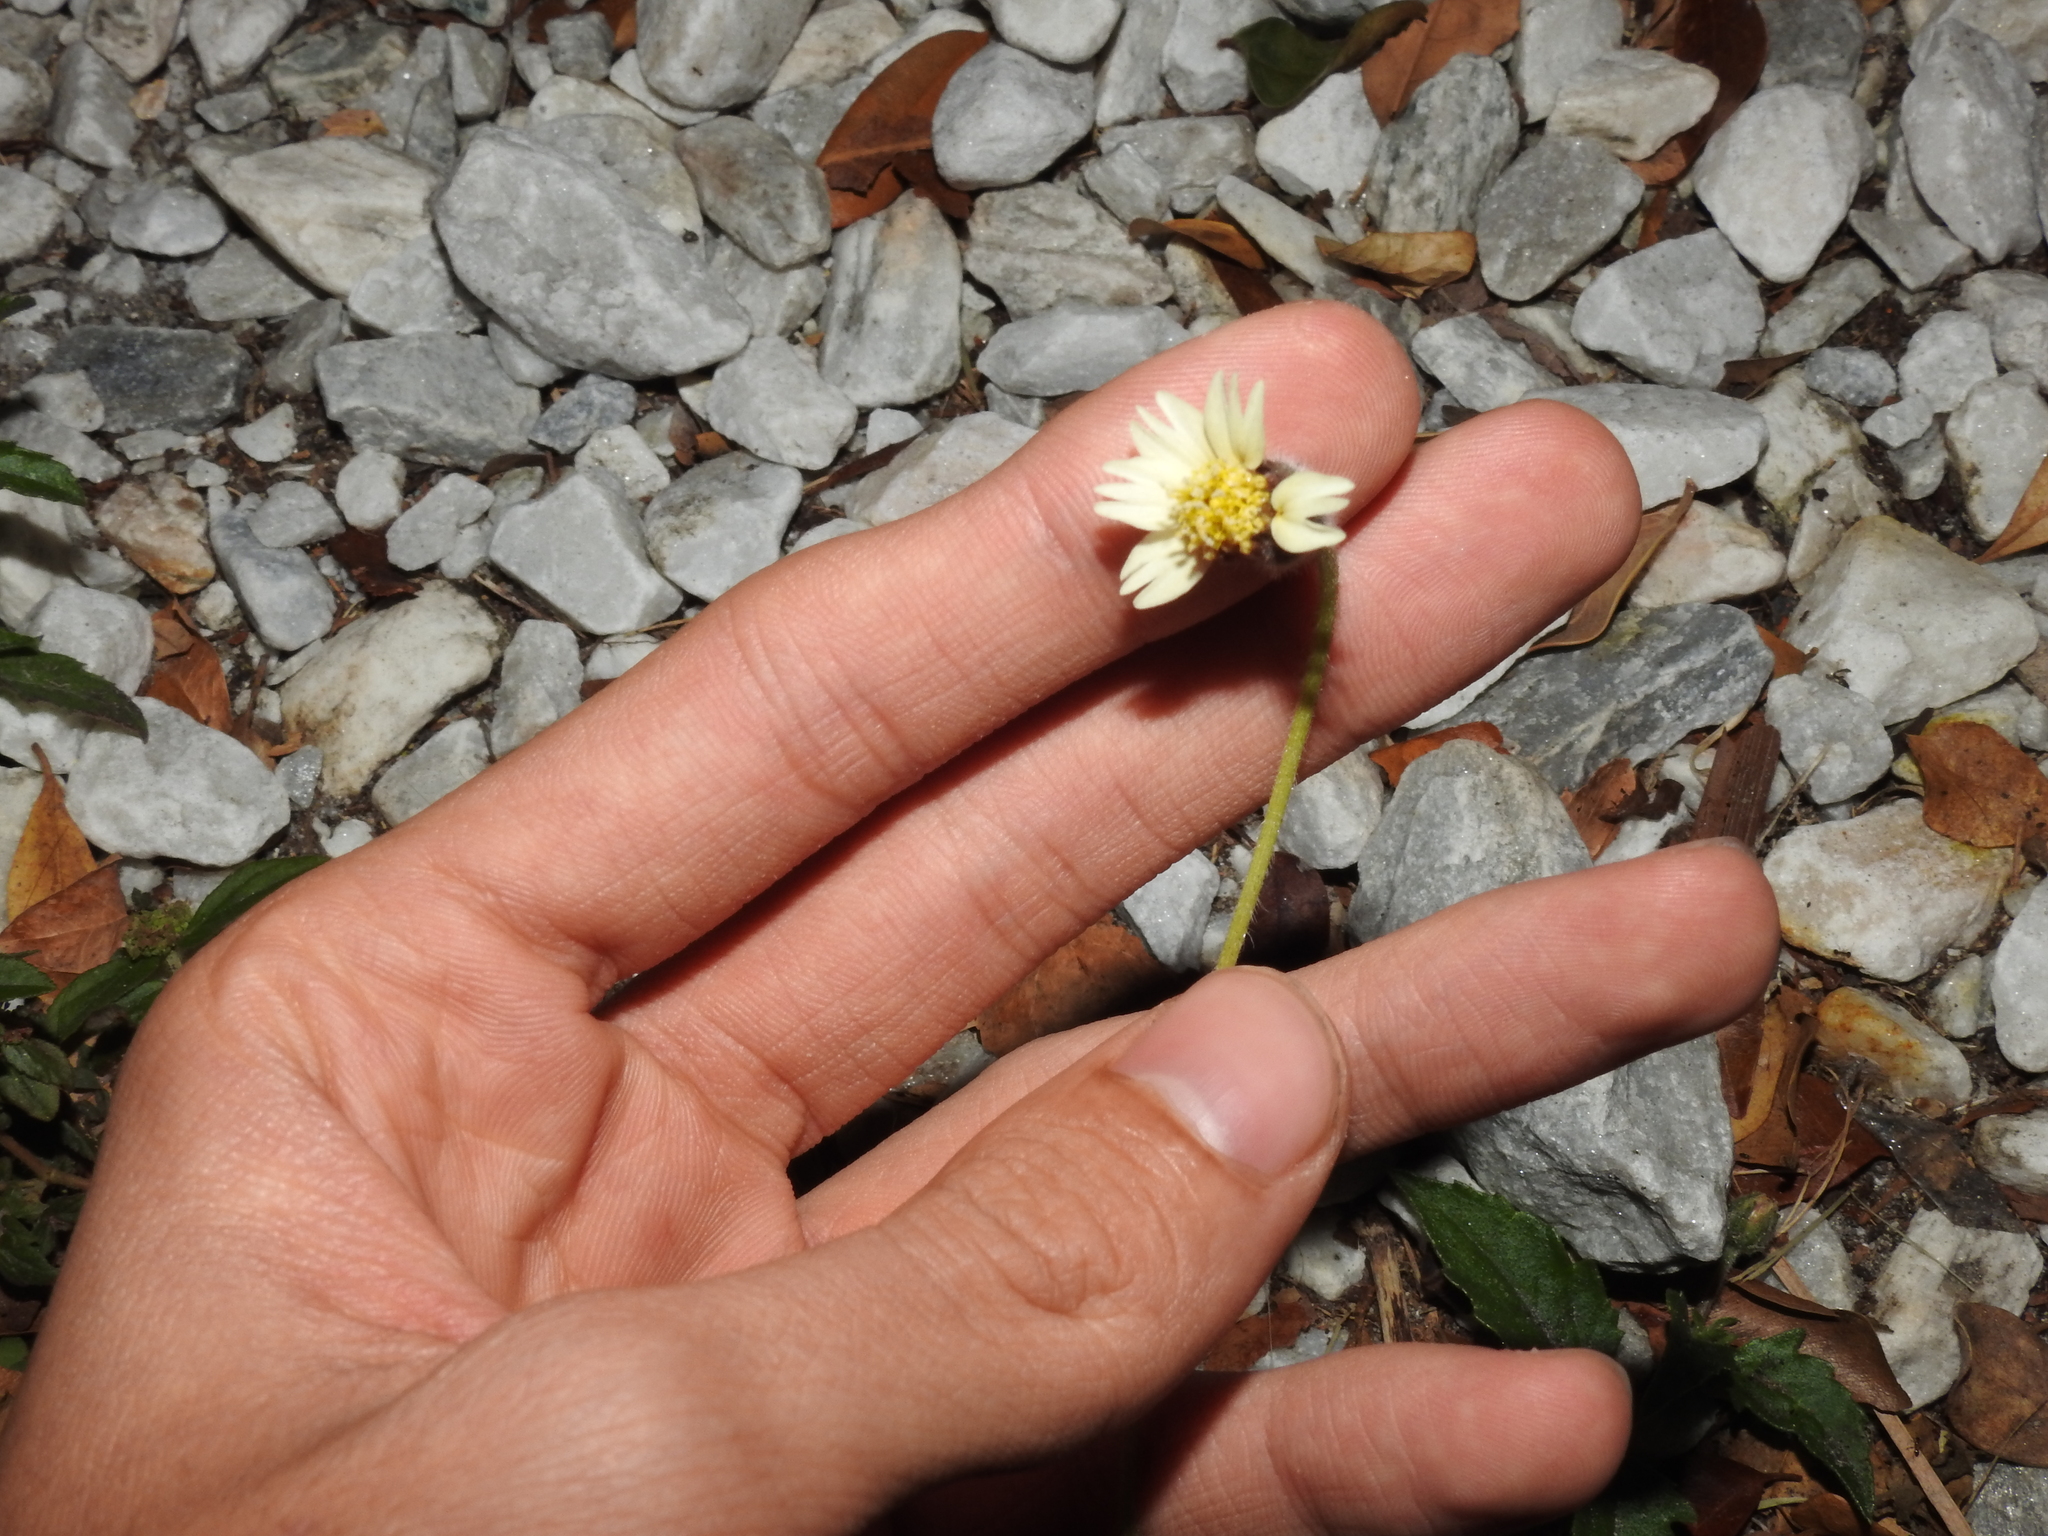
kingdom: Plantae
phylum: Tracheophyta
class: Magnoliopsida
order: Asterales
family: Asteraceae
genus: Tridax
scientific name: Tridax procumbens
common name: Coatbuttons
